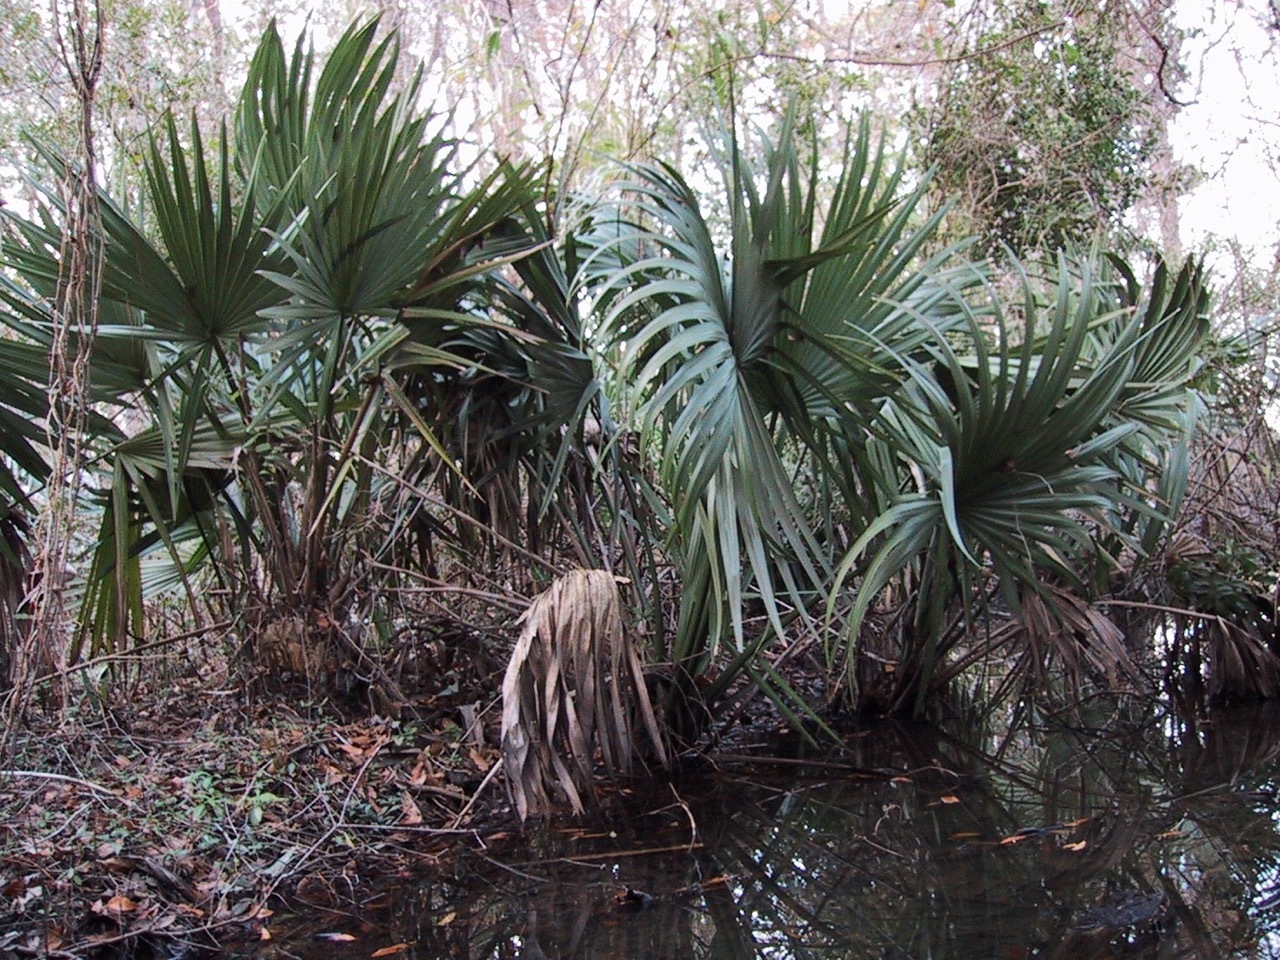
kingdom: Plantae
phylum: Tracheophyta
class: Liliopsida
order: Arecales
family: Arecaceae
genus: Sabal
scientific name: Sabal minor
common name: Dwarf palmetto
